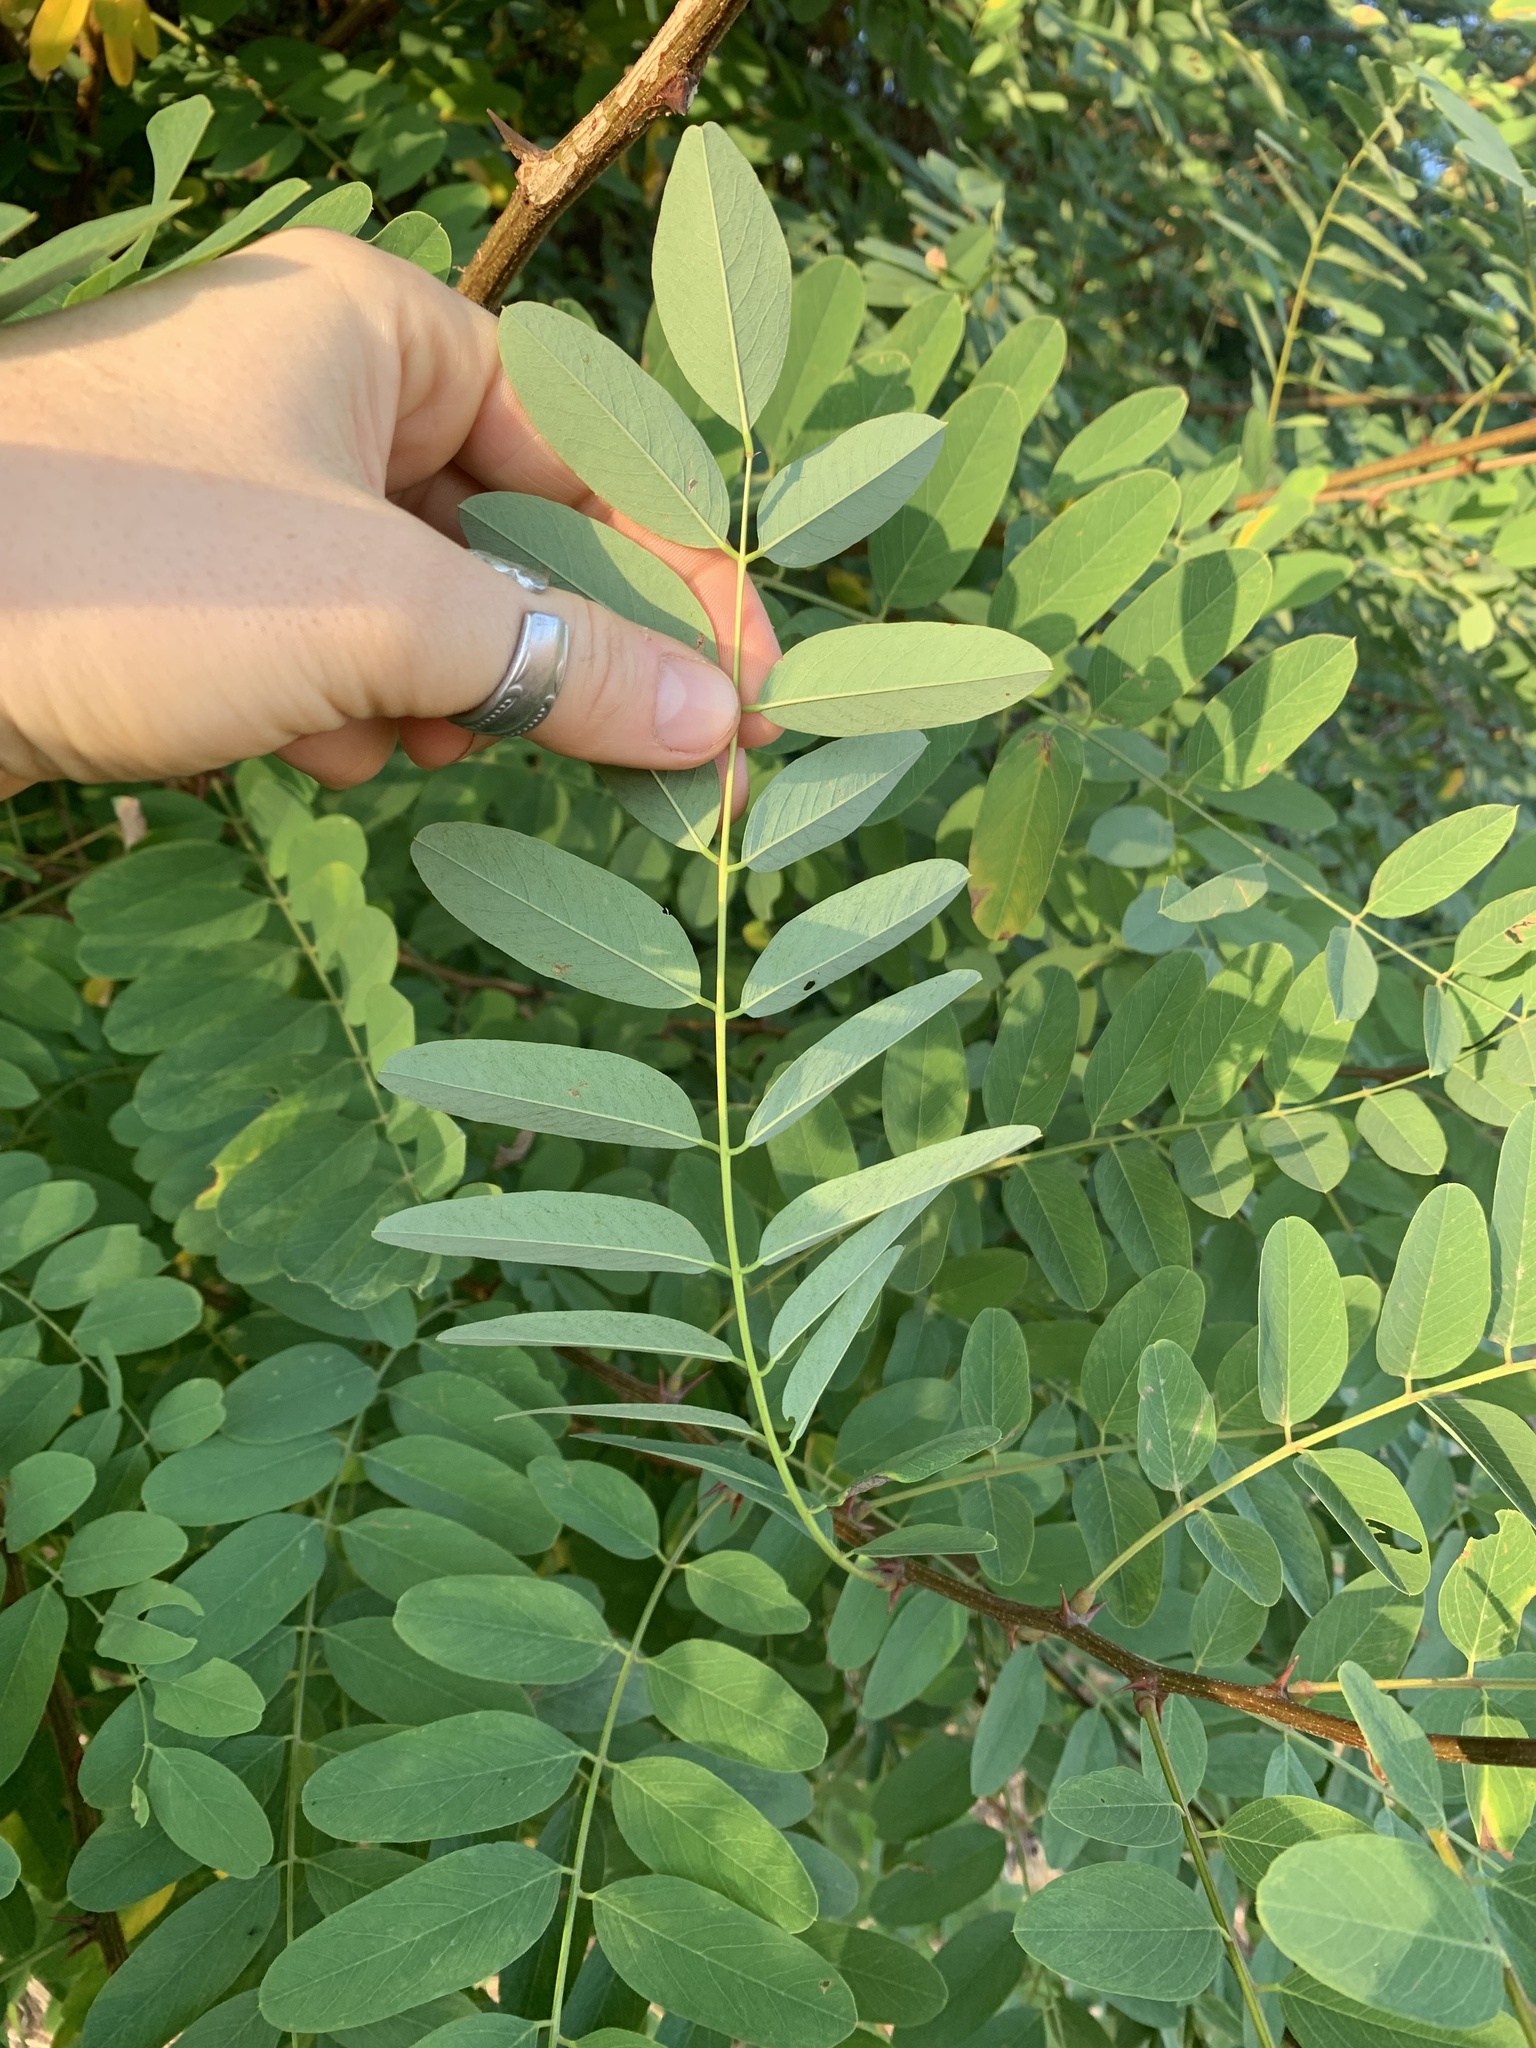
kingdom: Plantae
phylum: Tracheophyta
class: Magnoliopsida
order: Fabales
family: Fabaceae
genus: Robinia
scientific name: Robinia pseudoacacia
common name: Black locust
